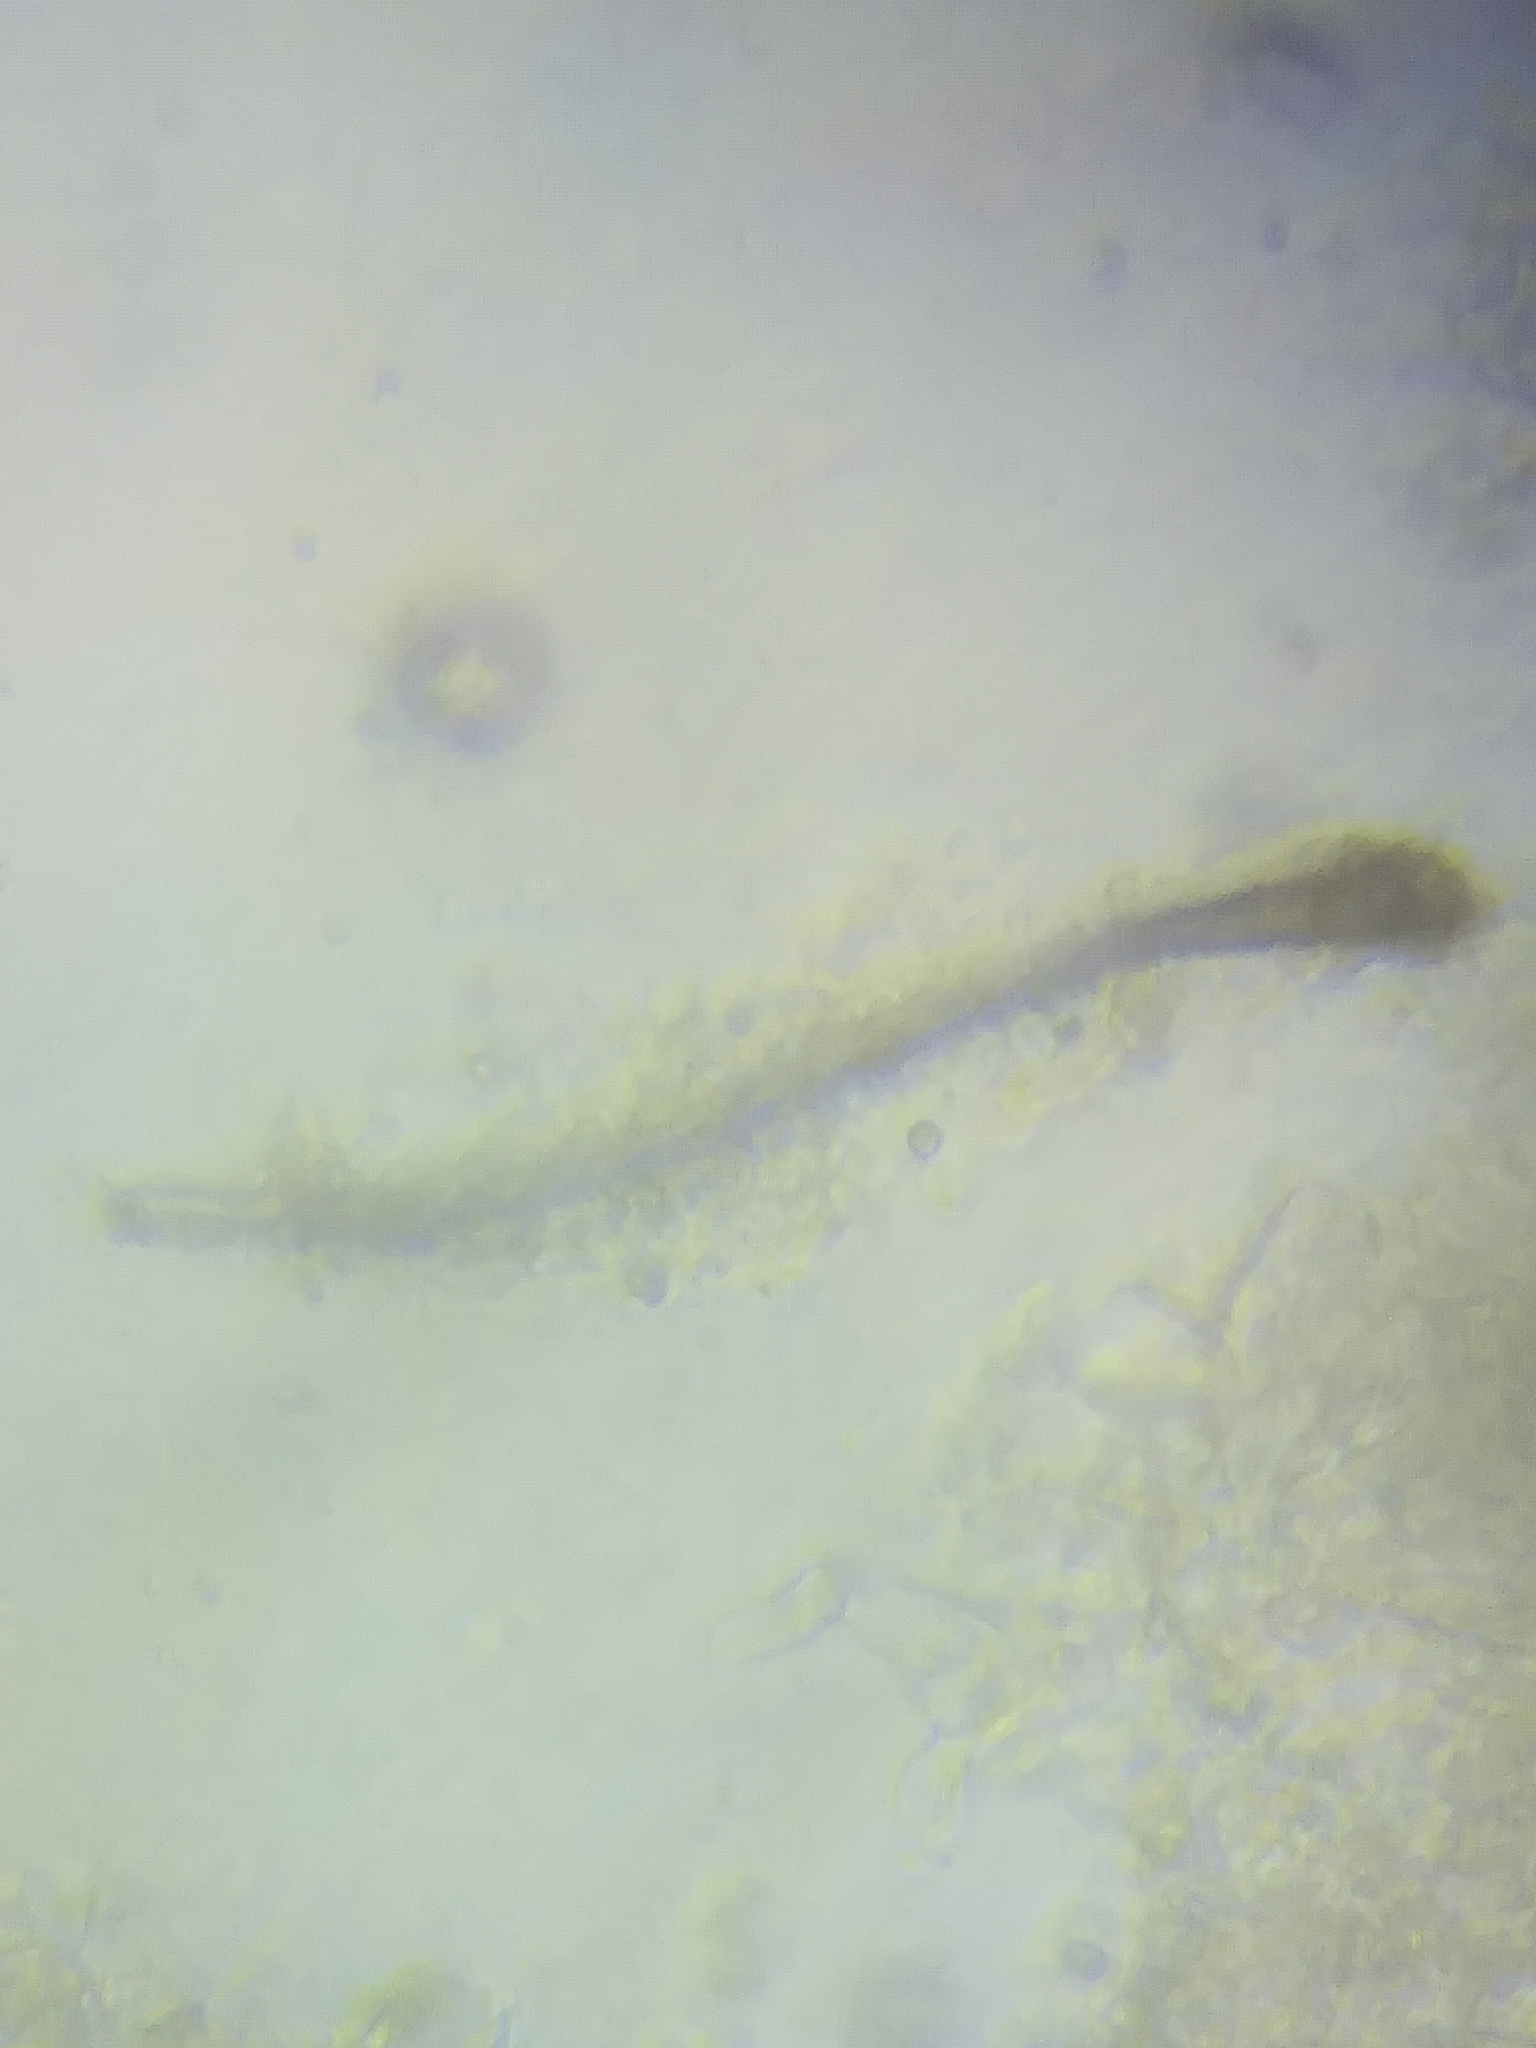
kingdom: Fungi
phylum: Ascomycota
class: Sordariomycetes
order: Hypocreales
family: Hypocreaceae
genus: Trichoderma
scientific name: Trichoderma sinuosum
